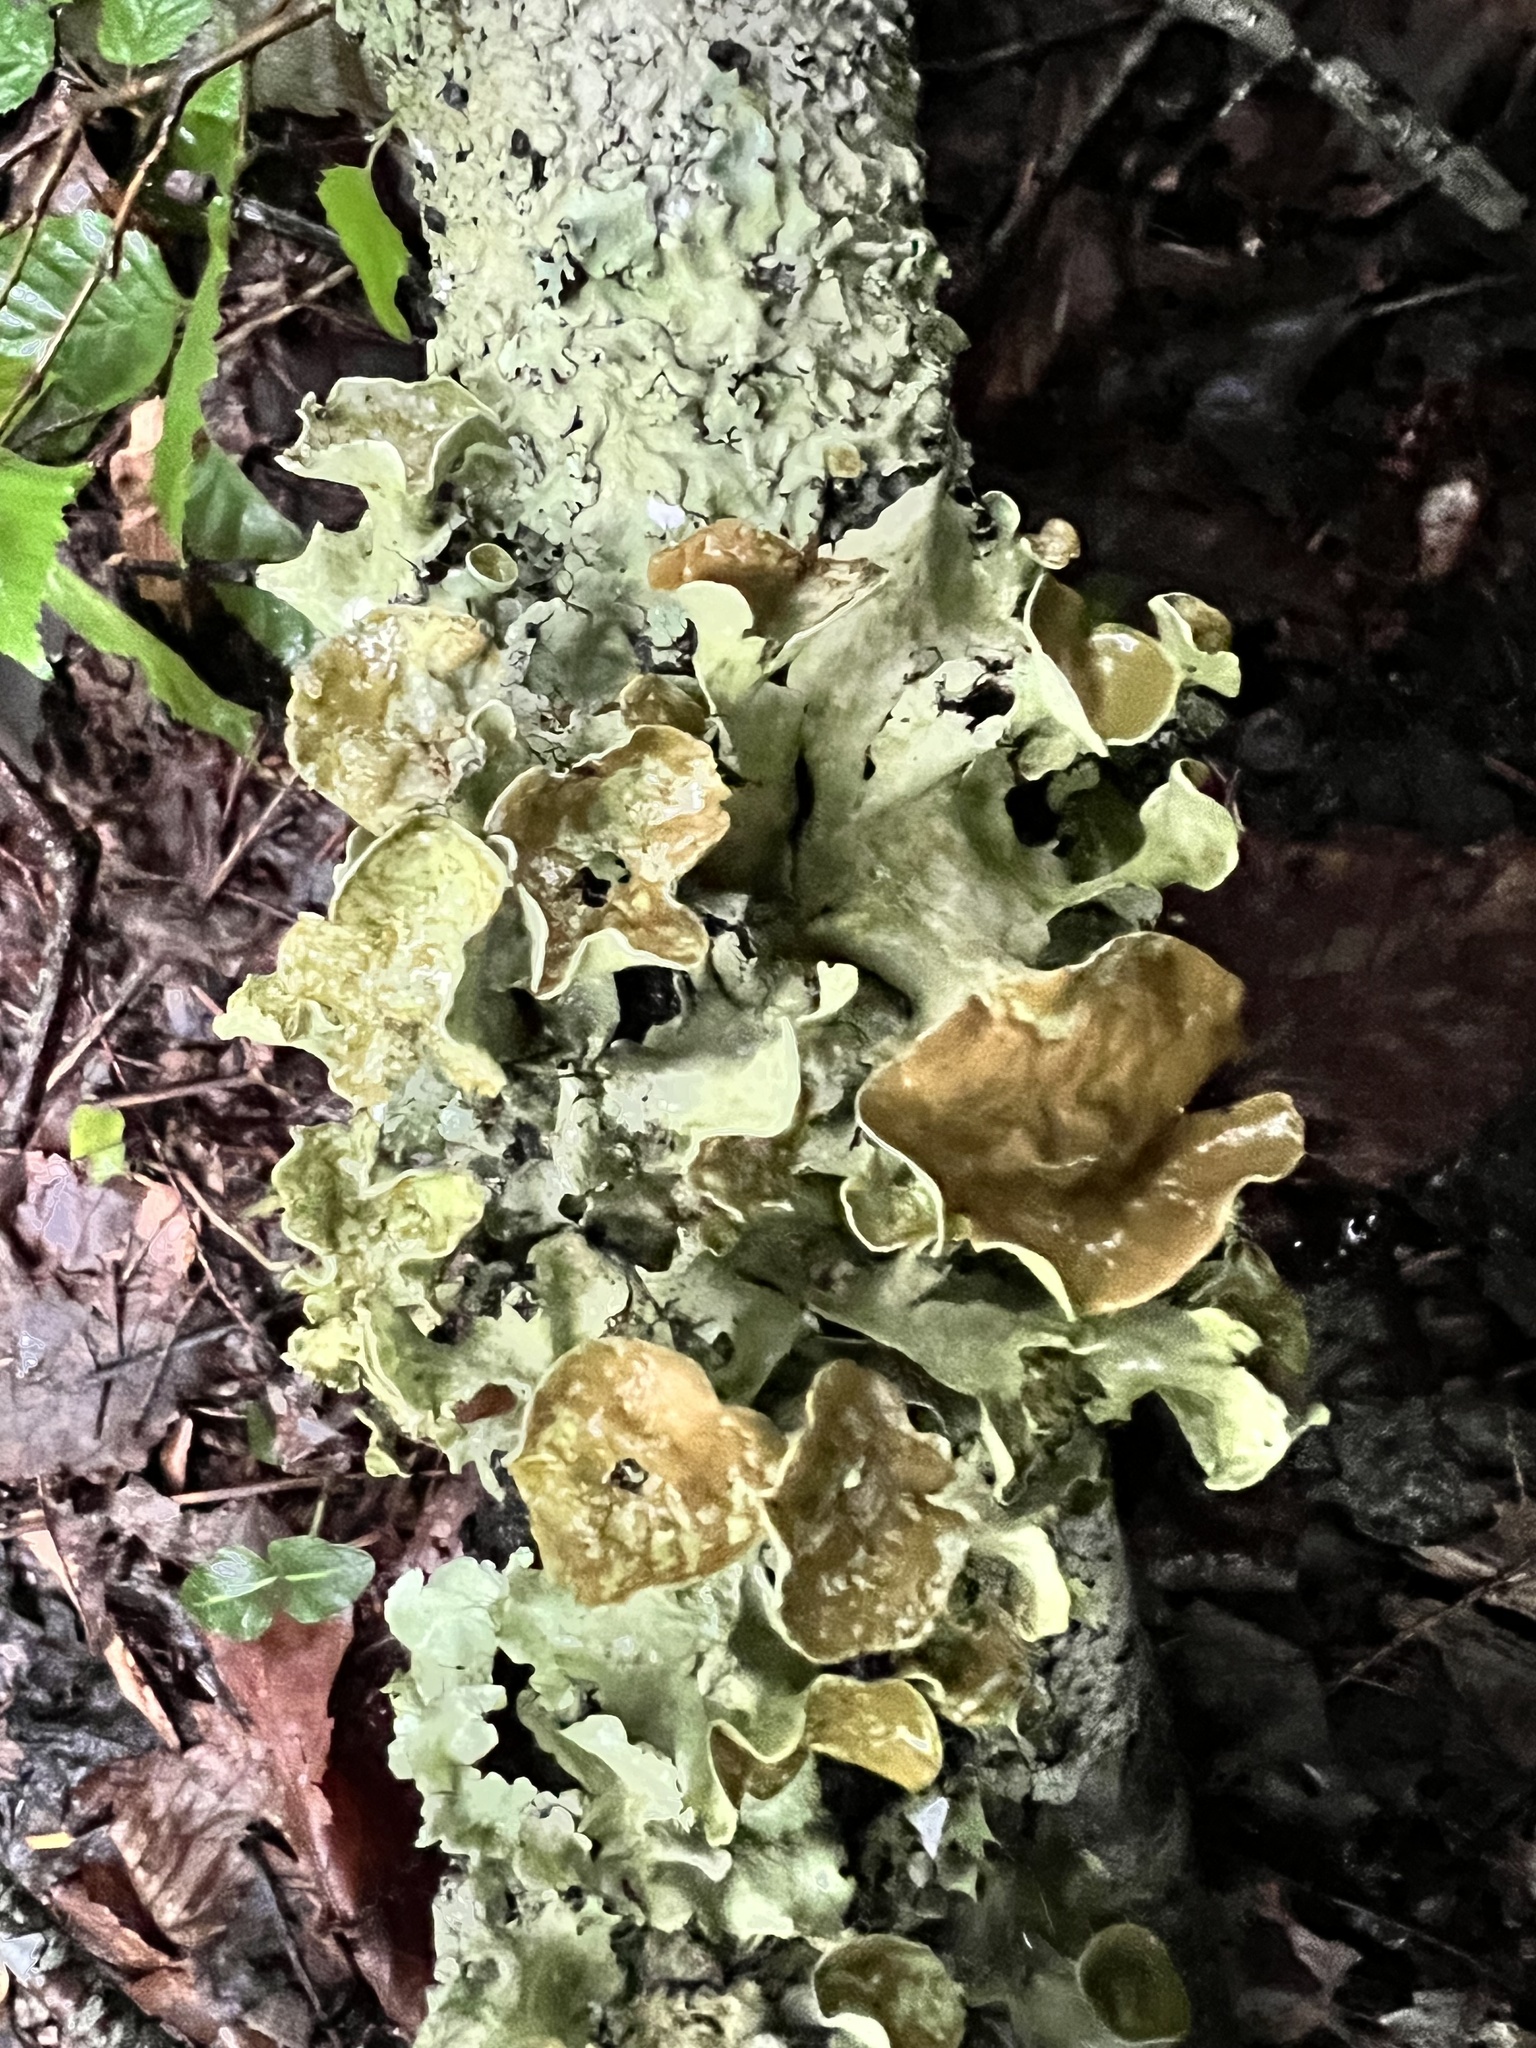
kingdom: Fungi
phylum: Ascomycota
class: Lecanoromycetes
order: Lecanorales
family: Parmeliaceae
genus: Parmotrema
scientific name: Parmotrema perforatum
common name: Perforated ruffle lichen
